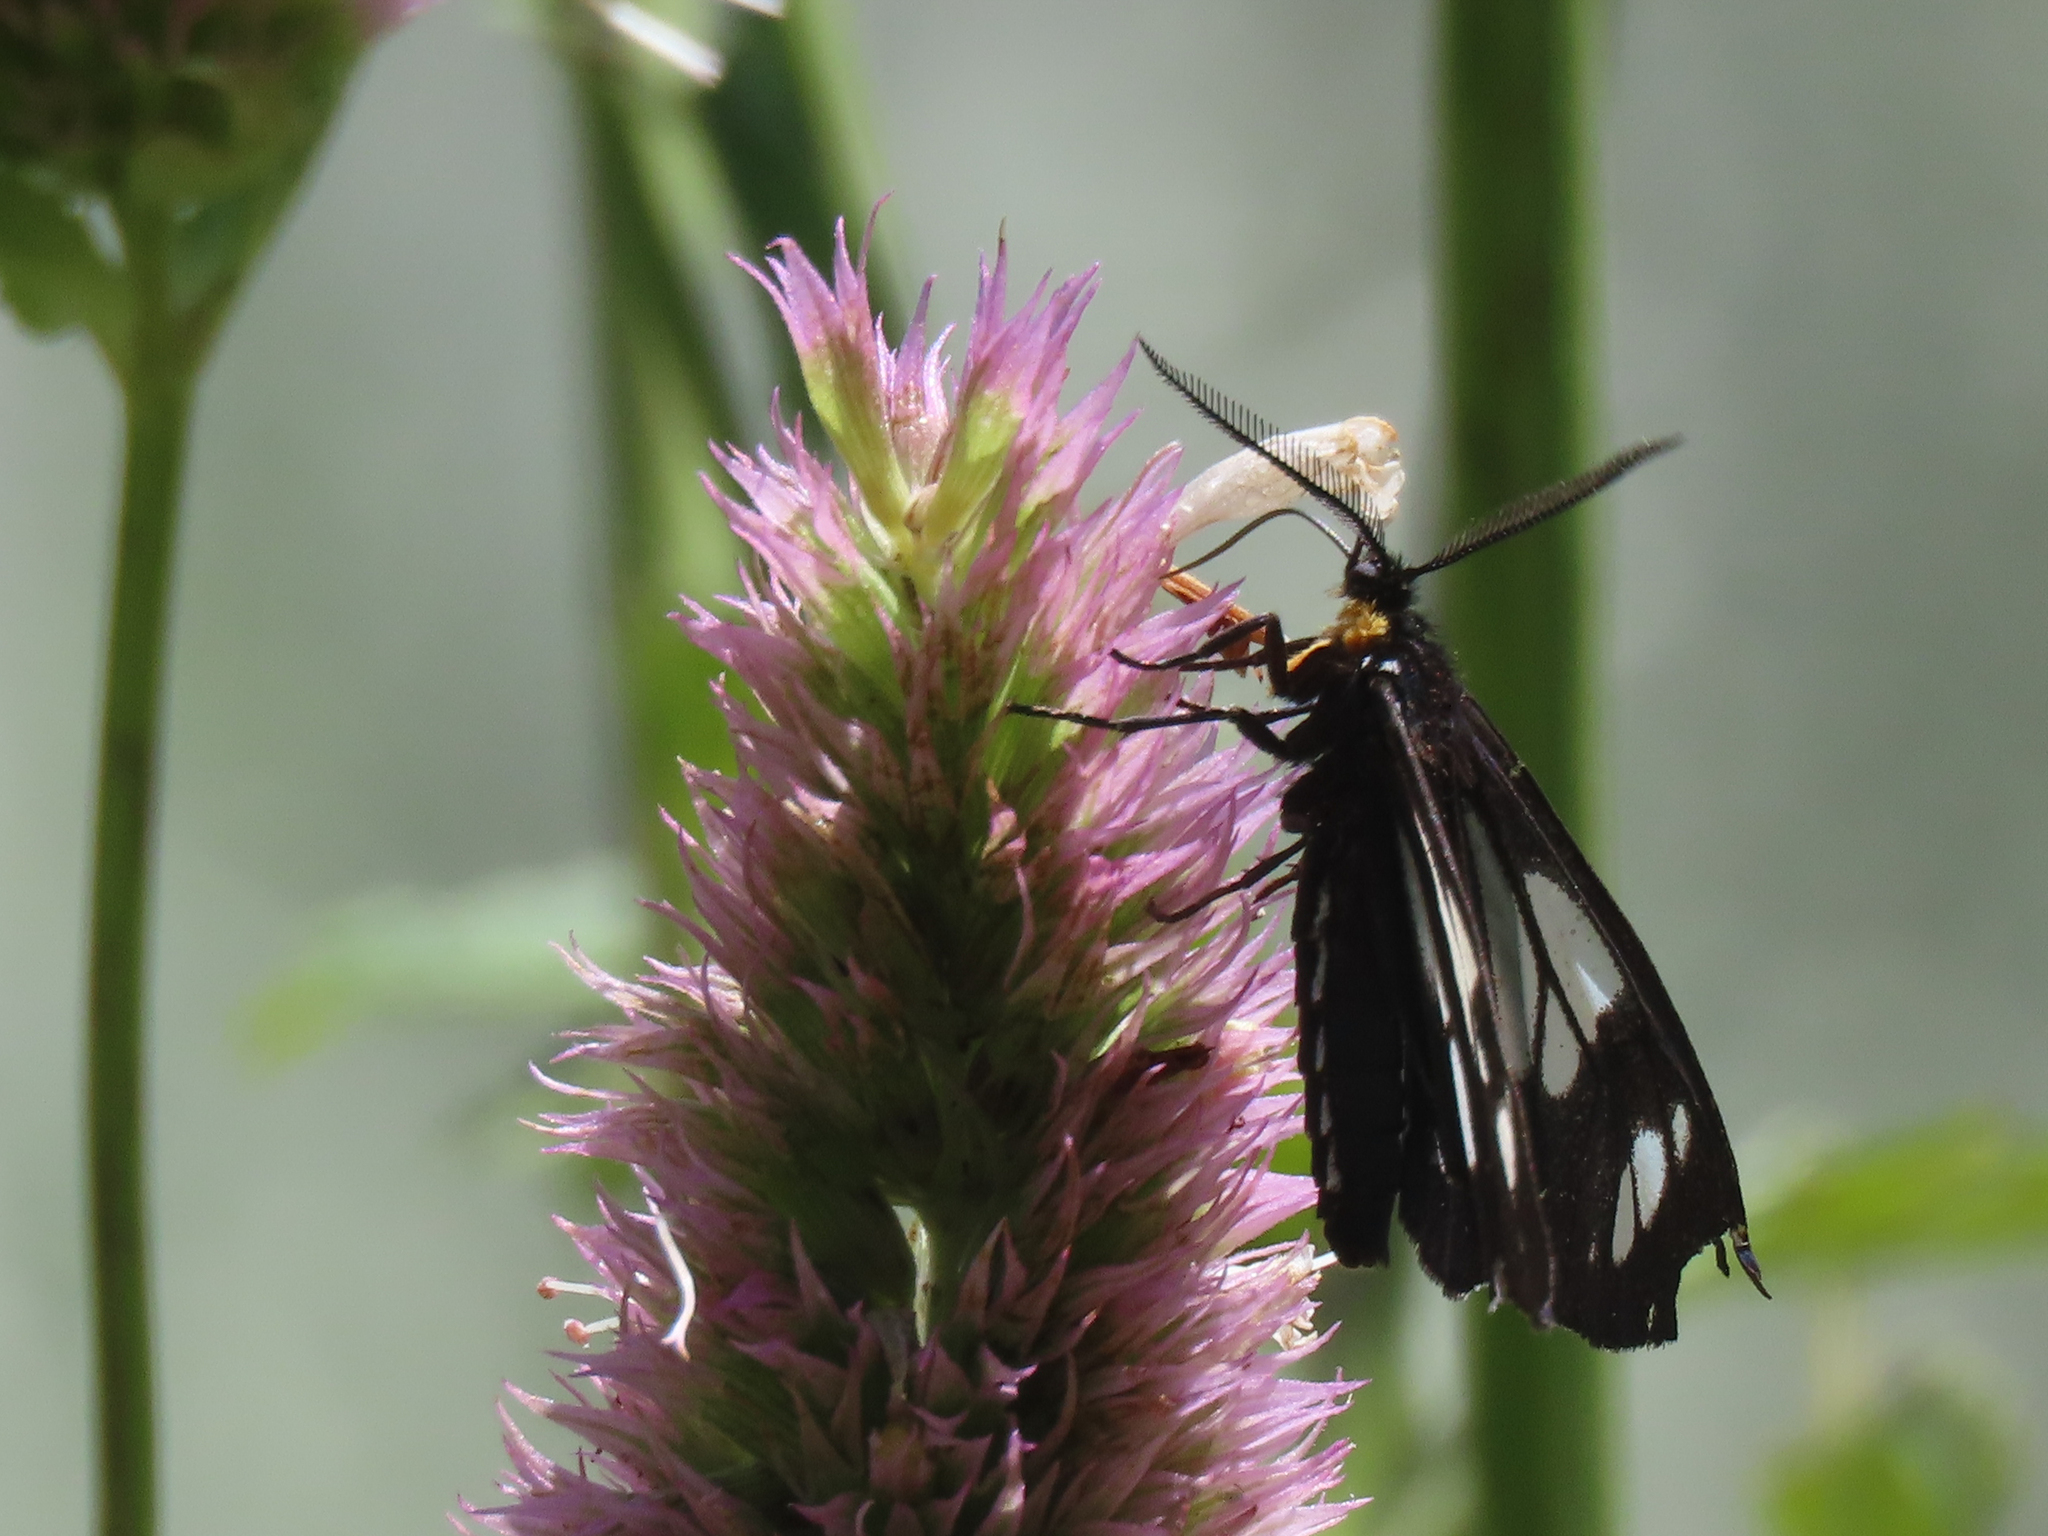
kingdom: Animalia
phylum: Arthropoda
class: Insecta
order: Lepidoptera
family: Erebidae
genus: Gnophaela
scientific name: Gnophaela vermiculata
